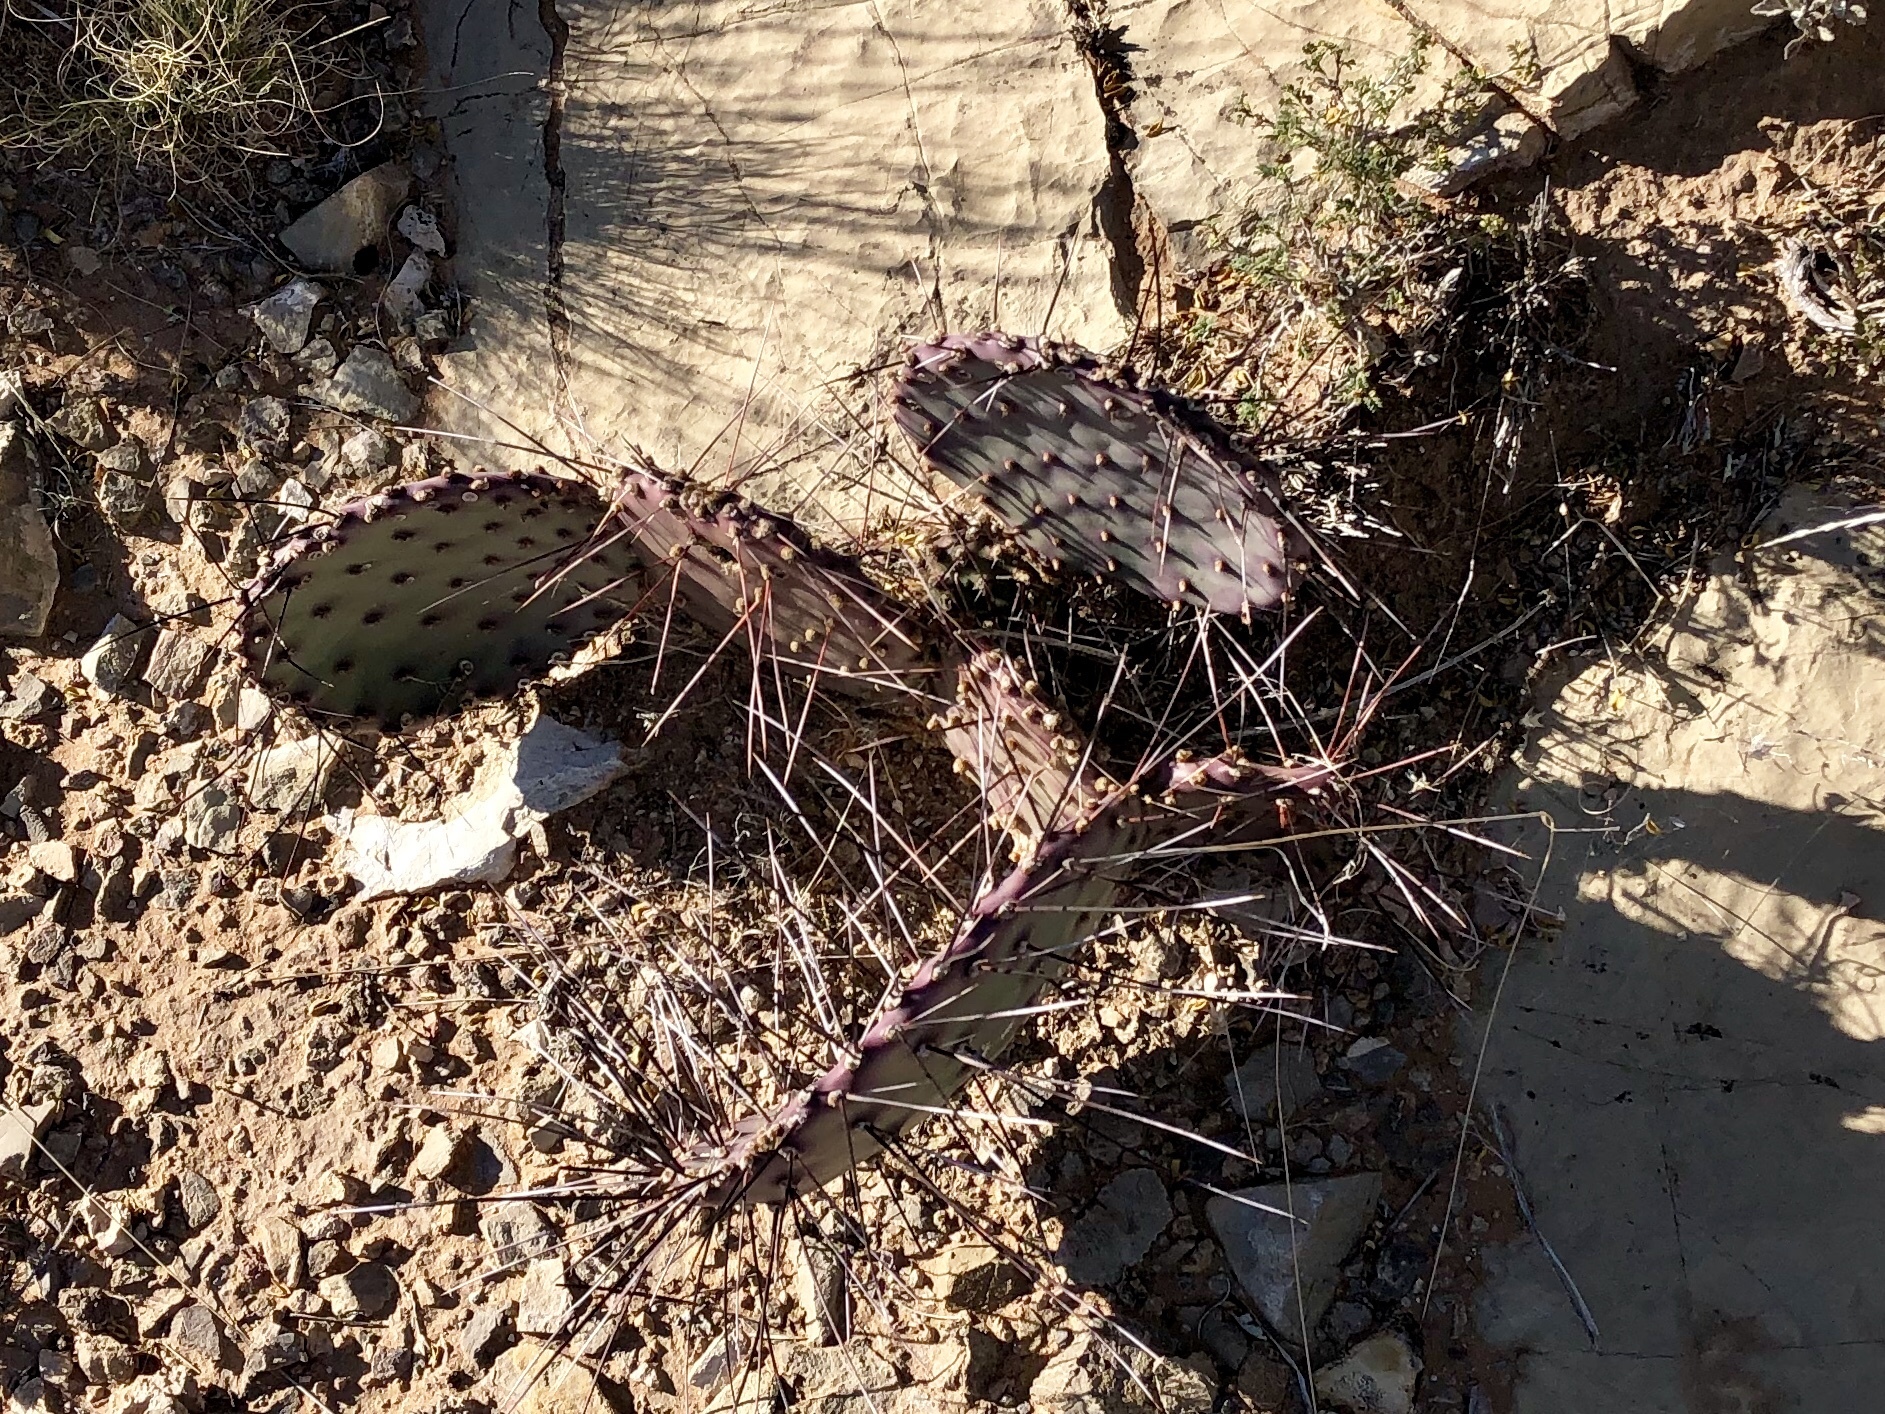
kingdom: Plantae
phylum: Tracheophyta
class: Magnoliopsida
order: Caryophyllales
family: Cactaceae
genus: Opuntia
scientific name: Opuntia macrocentra
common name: Purple prickly-pear
